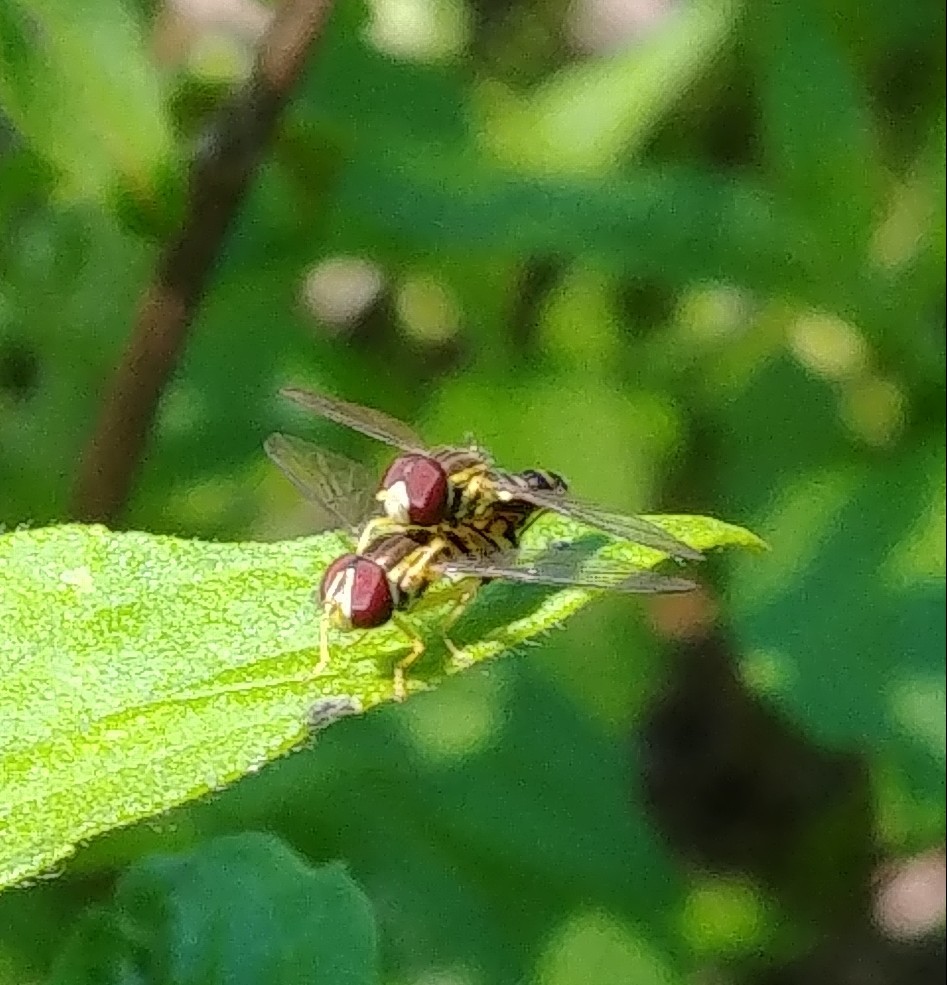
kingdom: Animalia
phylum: Arthropoda
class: Insecta
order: Diptera
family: Syrphidae
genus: Toxomerus
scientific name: Toxomerus geminatus
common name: Eastern calligrapher
